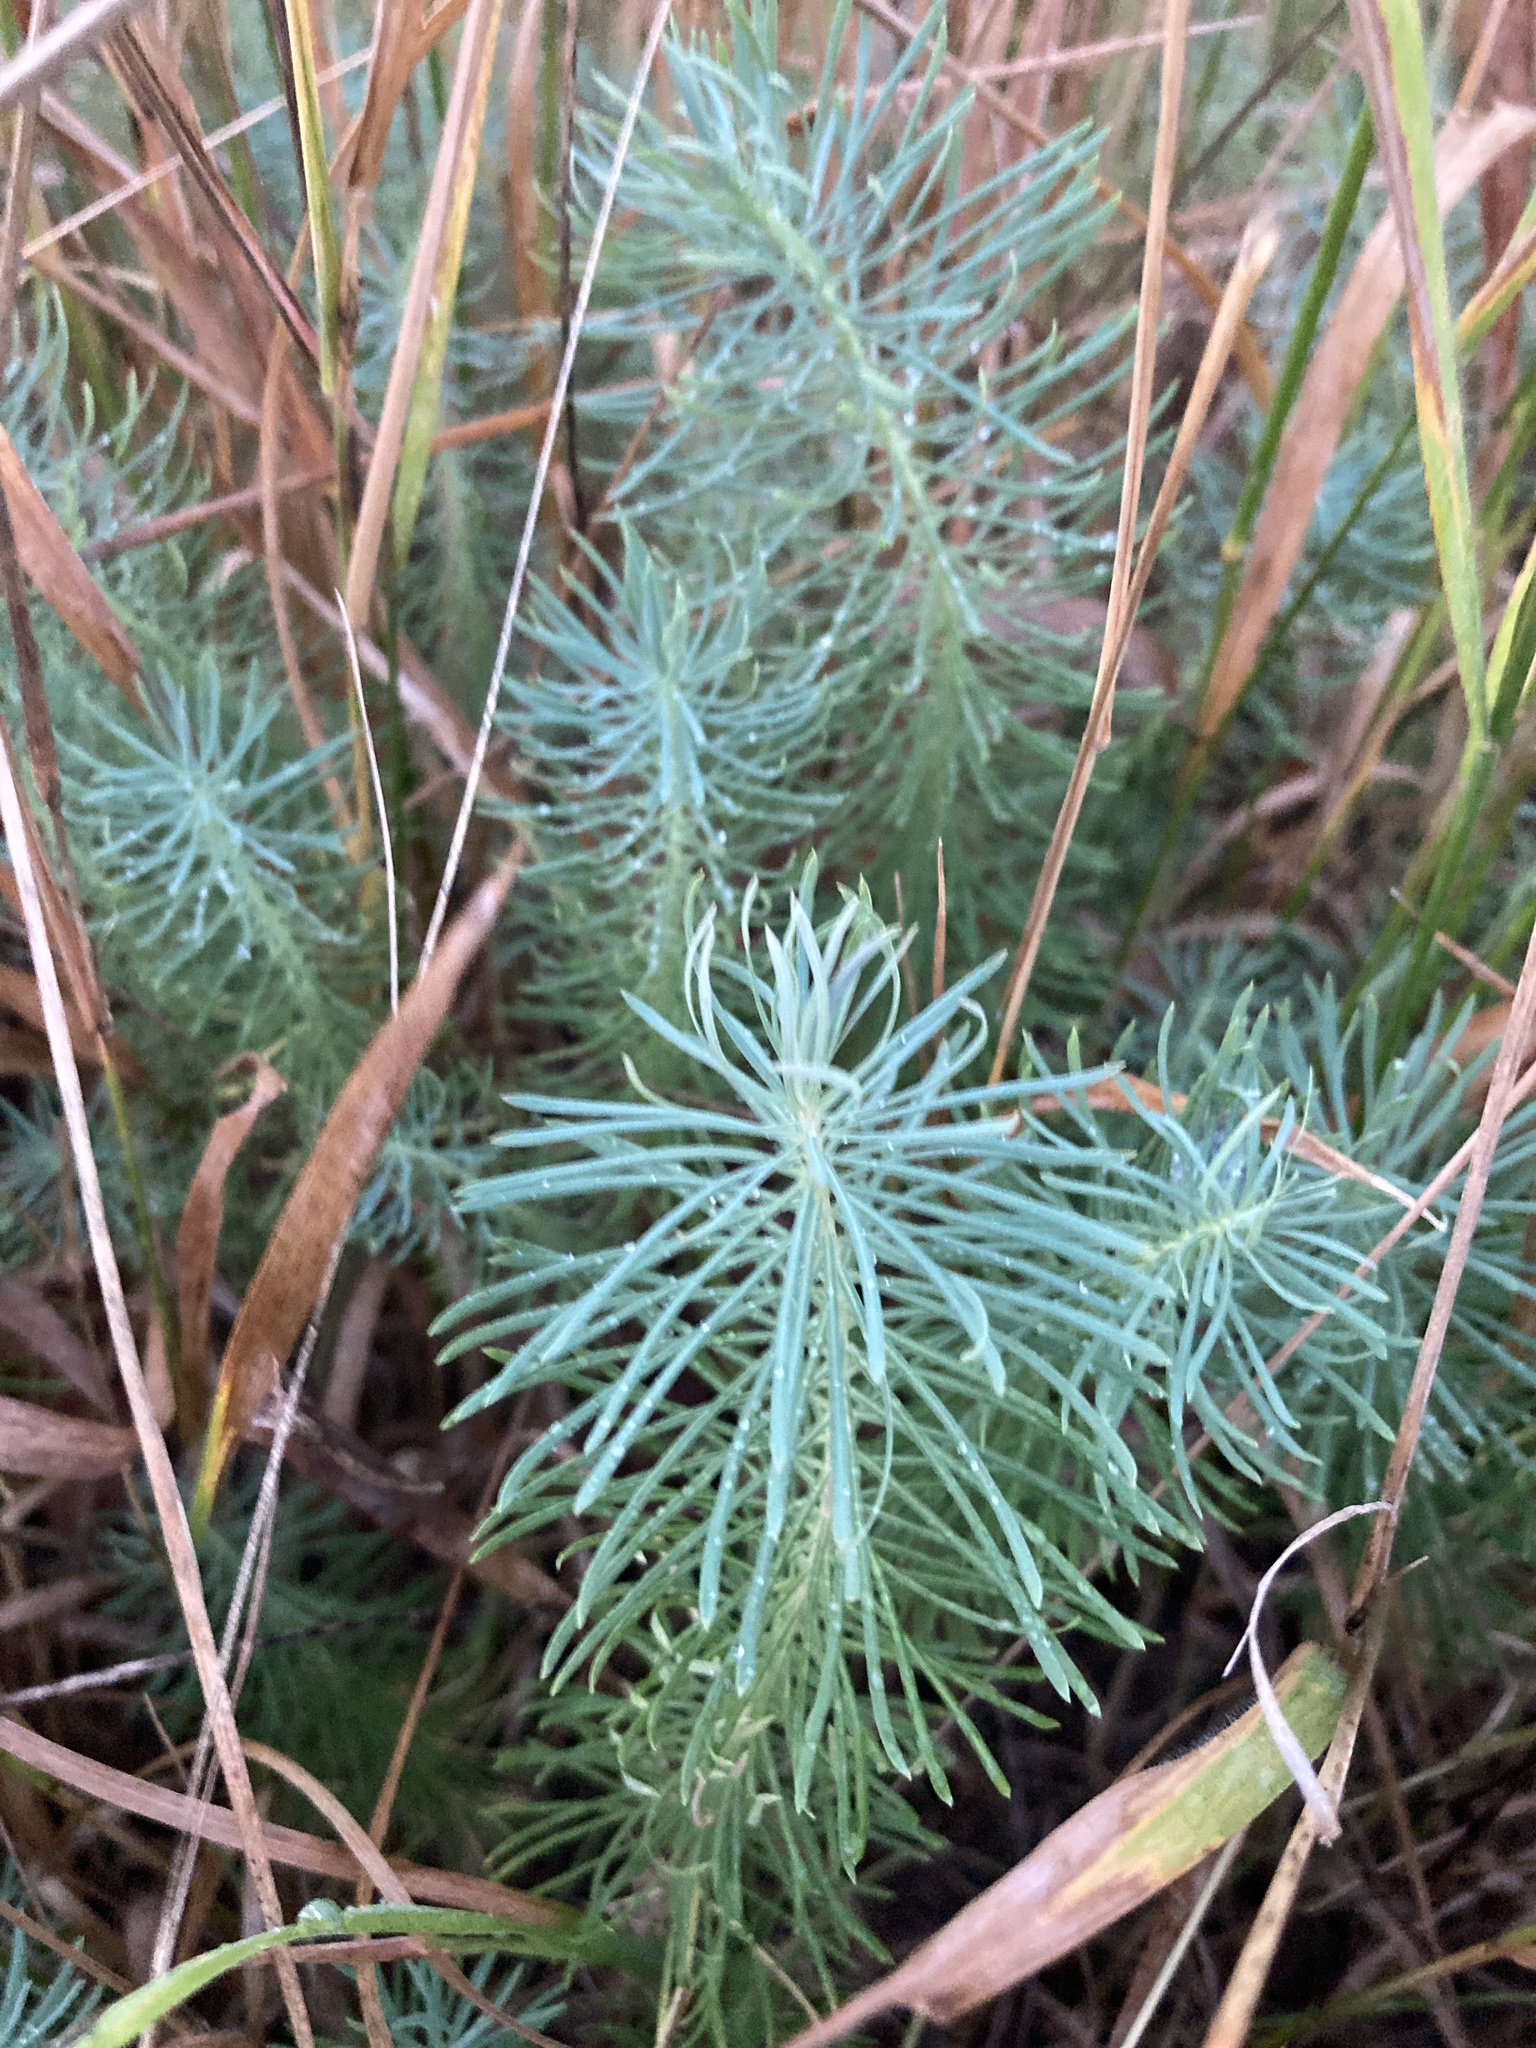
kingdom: Plantae
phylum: Tracheophyta
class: Magnoliopsida
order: Malpighiales
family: Euphorbiaceae
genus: Euphorbia
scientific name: Euphorbia cyparissias
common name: Cypress spurge
